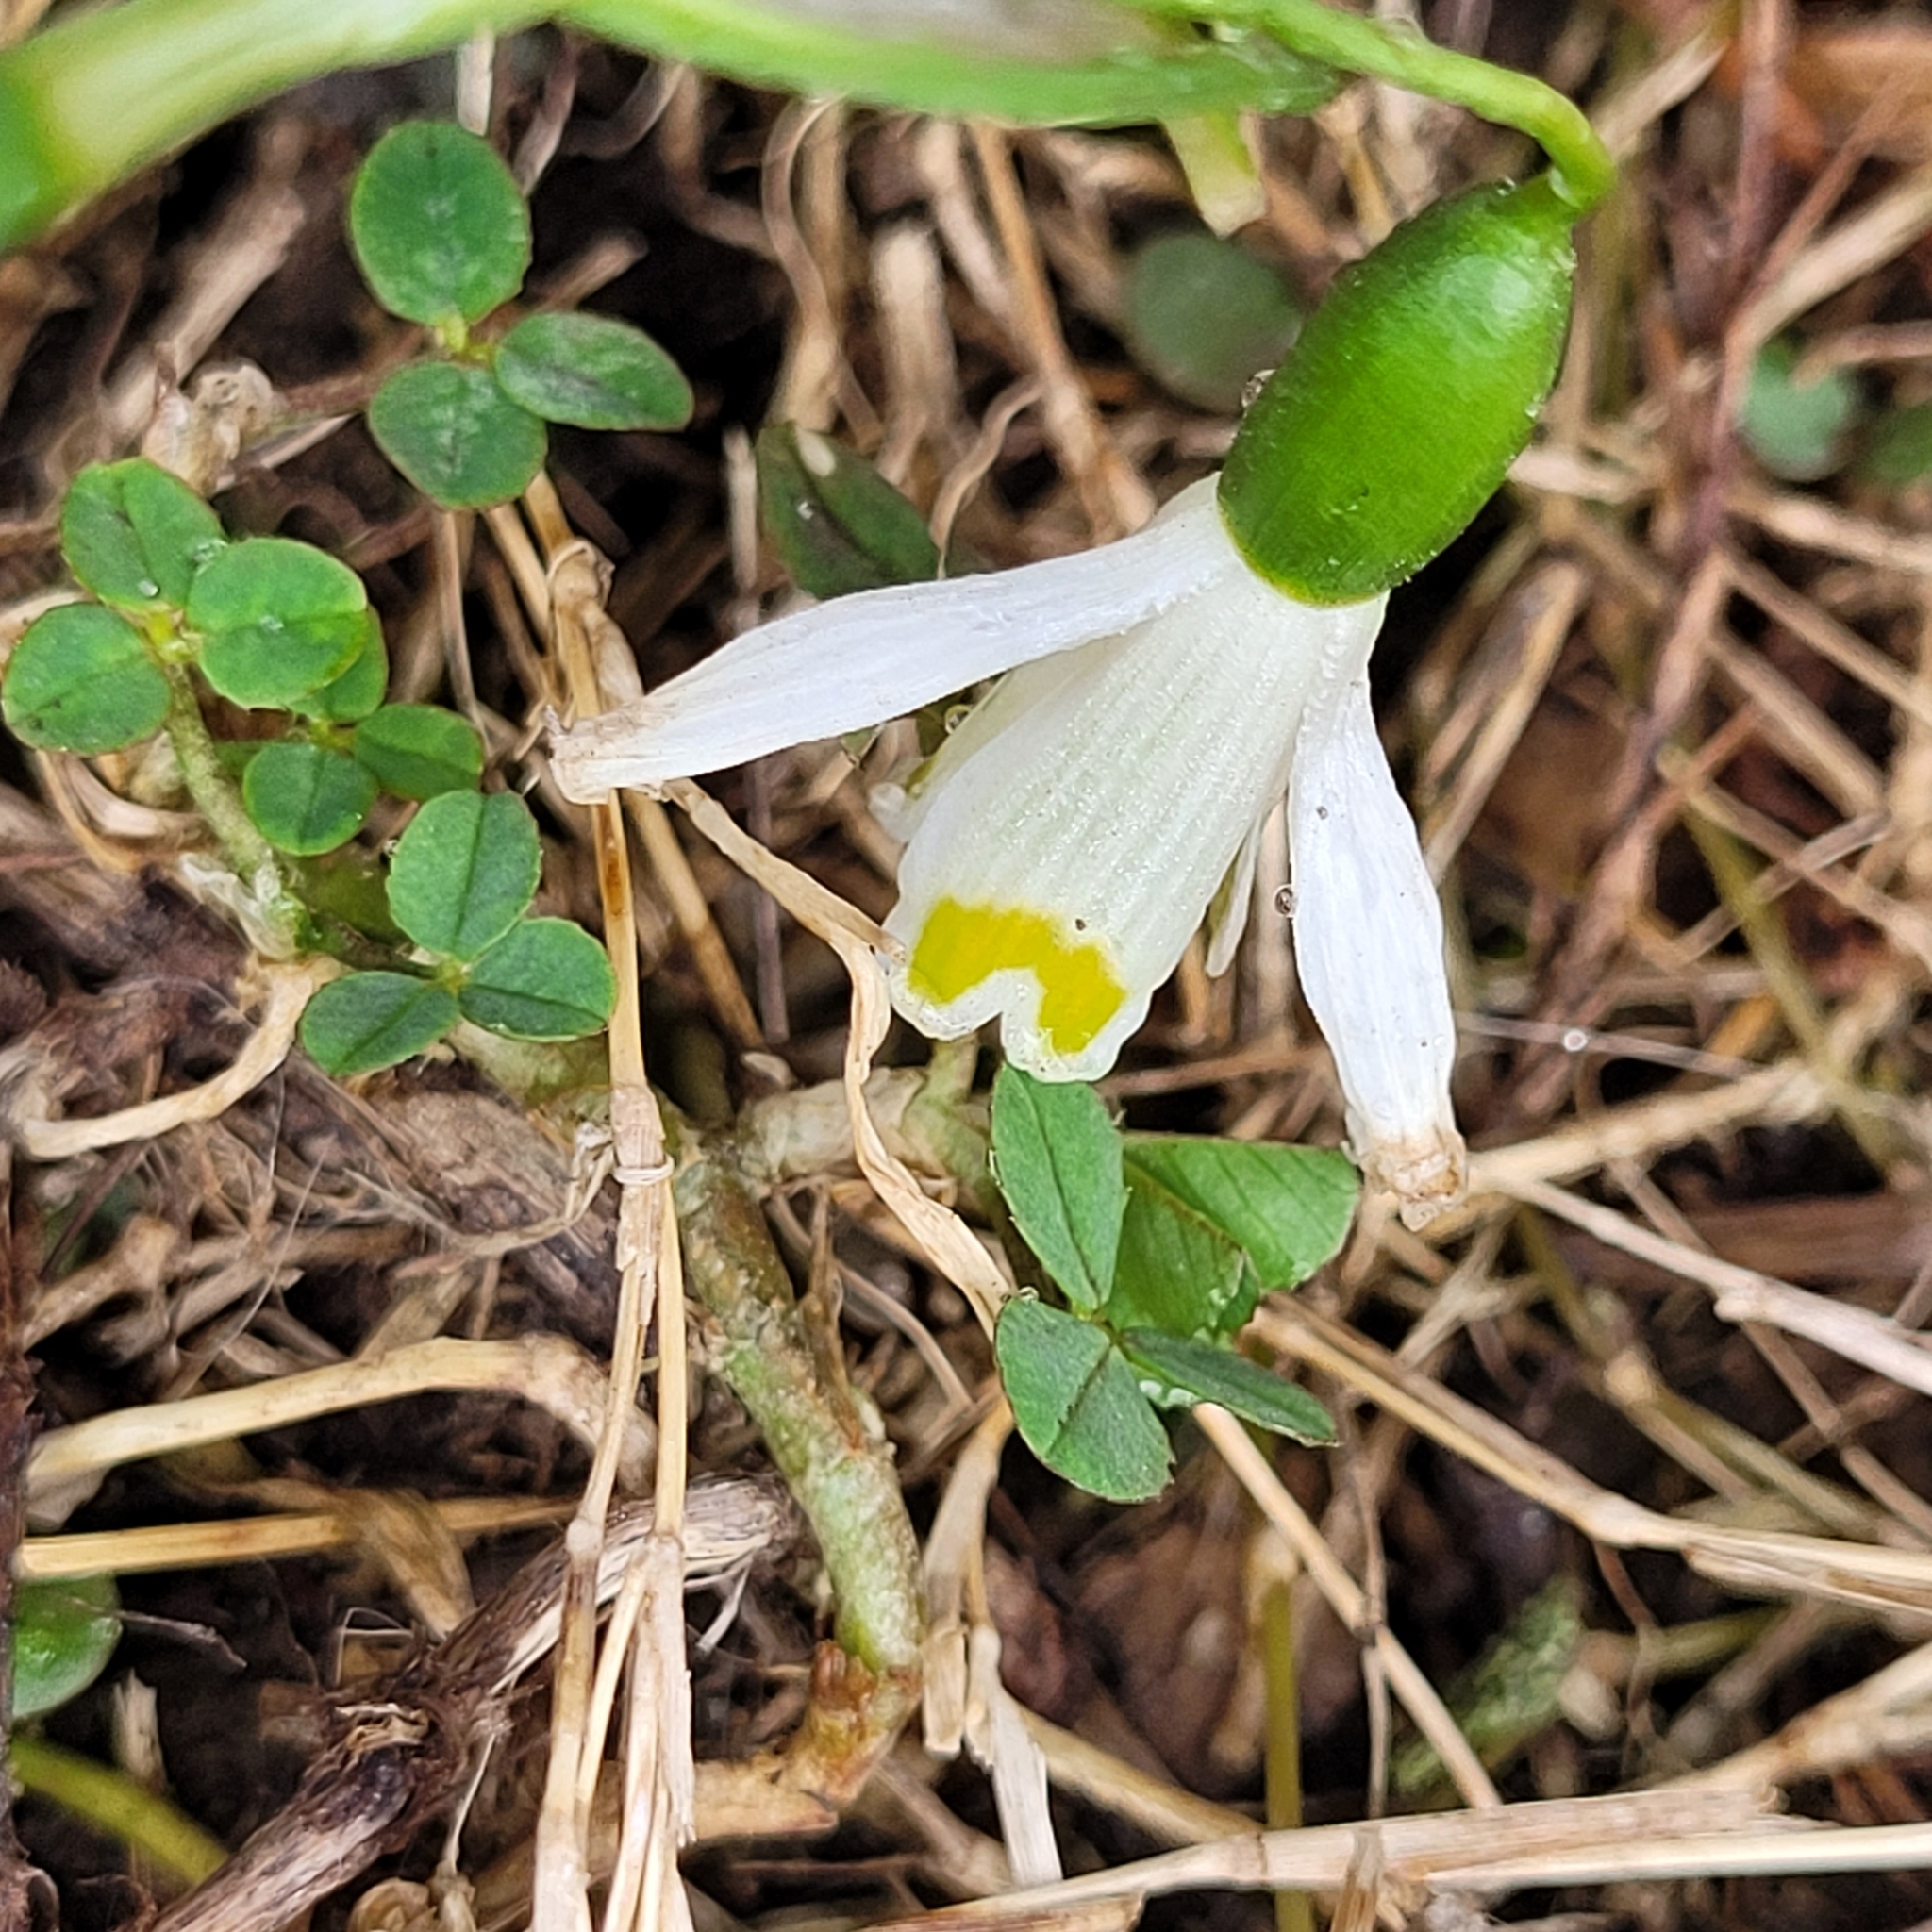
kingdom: Plantae
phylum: Tracheophyta
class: Liliopsida
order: Asparagales
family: Amaryllidaceae
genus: Galanthus
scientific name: Galanthus nivalis
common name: Snowdrop
